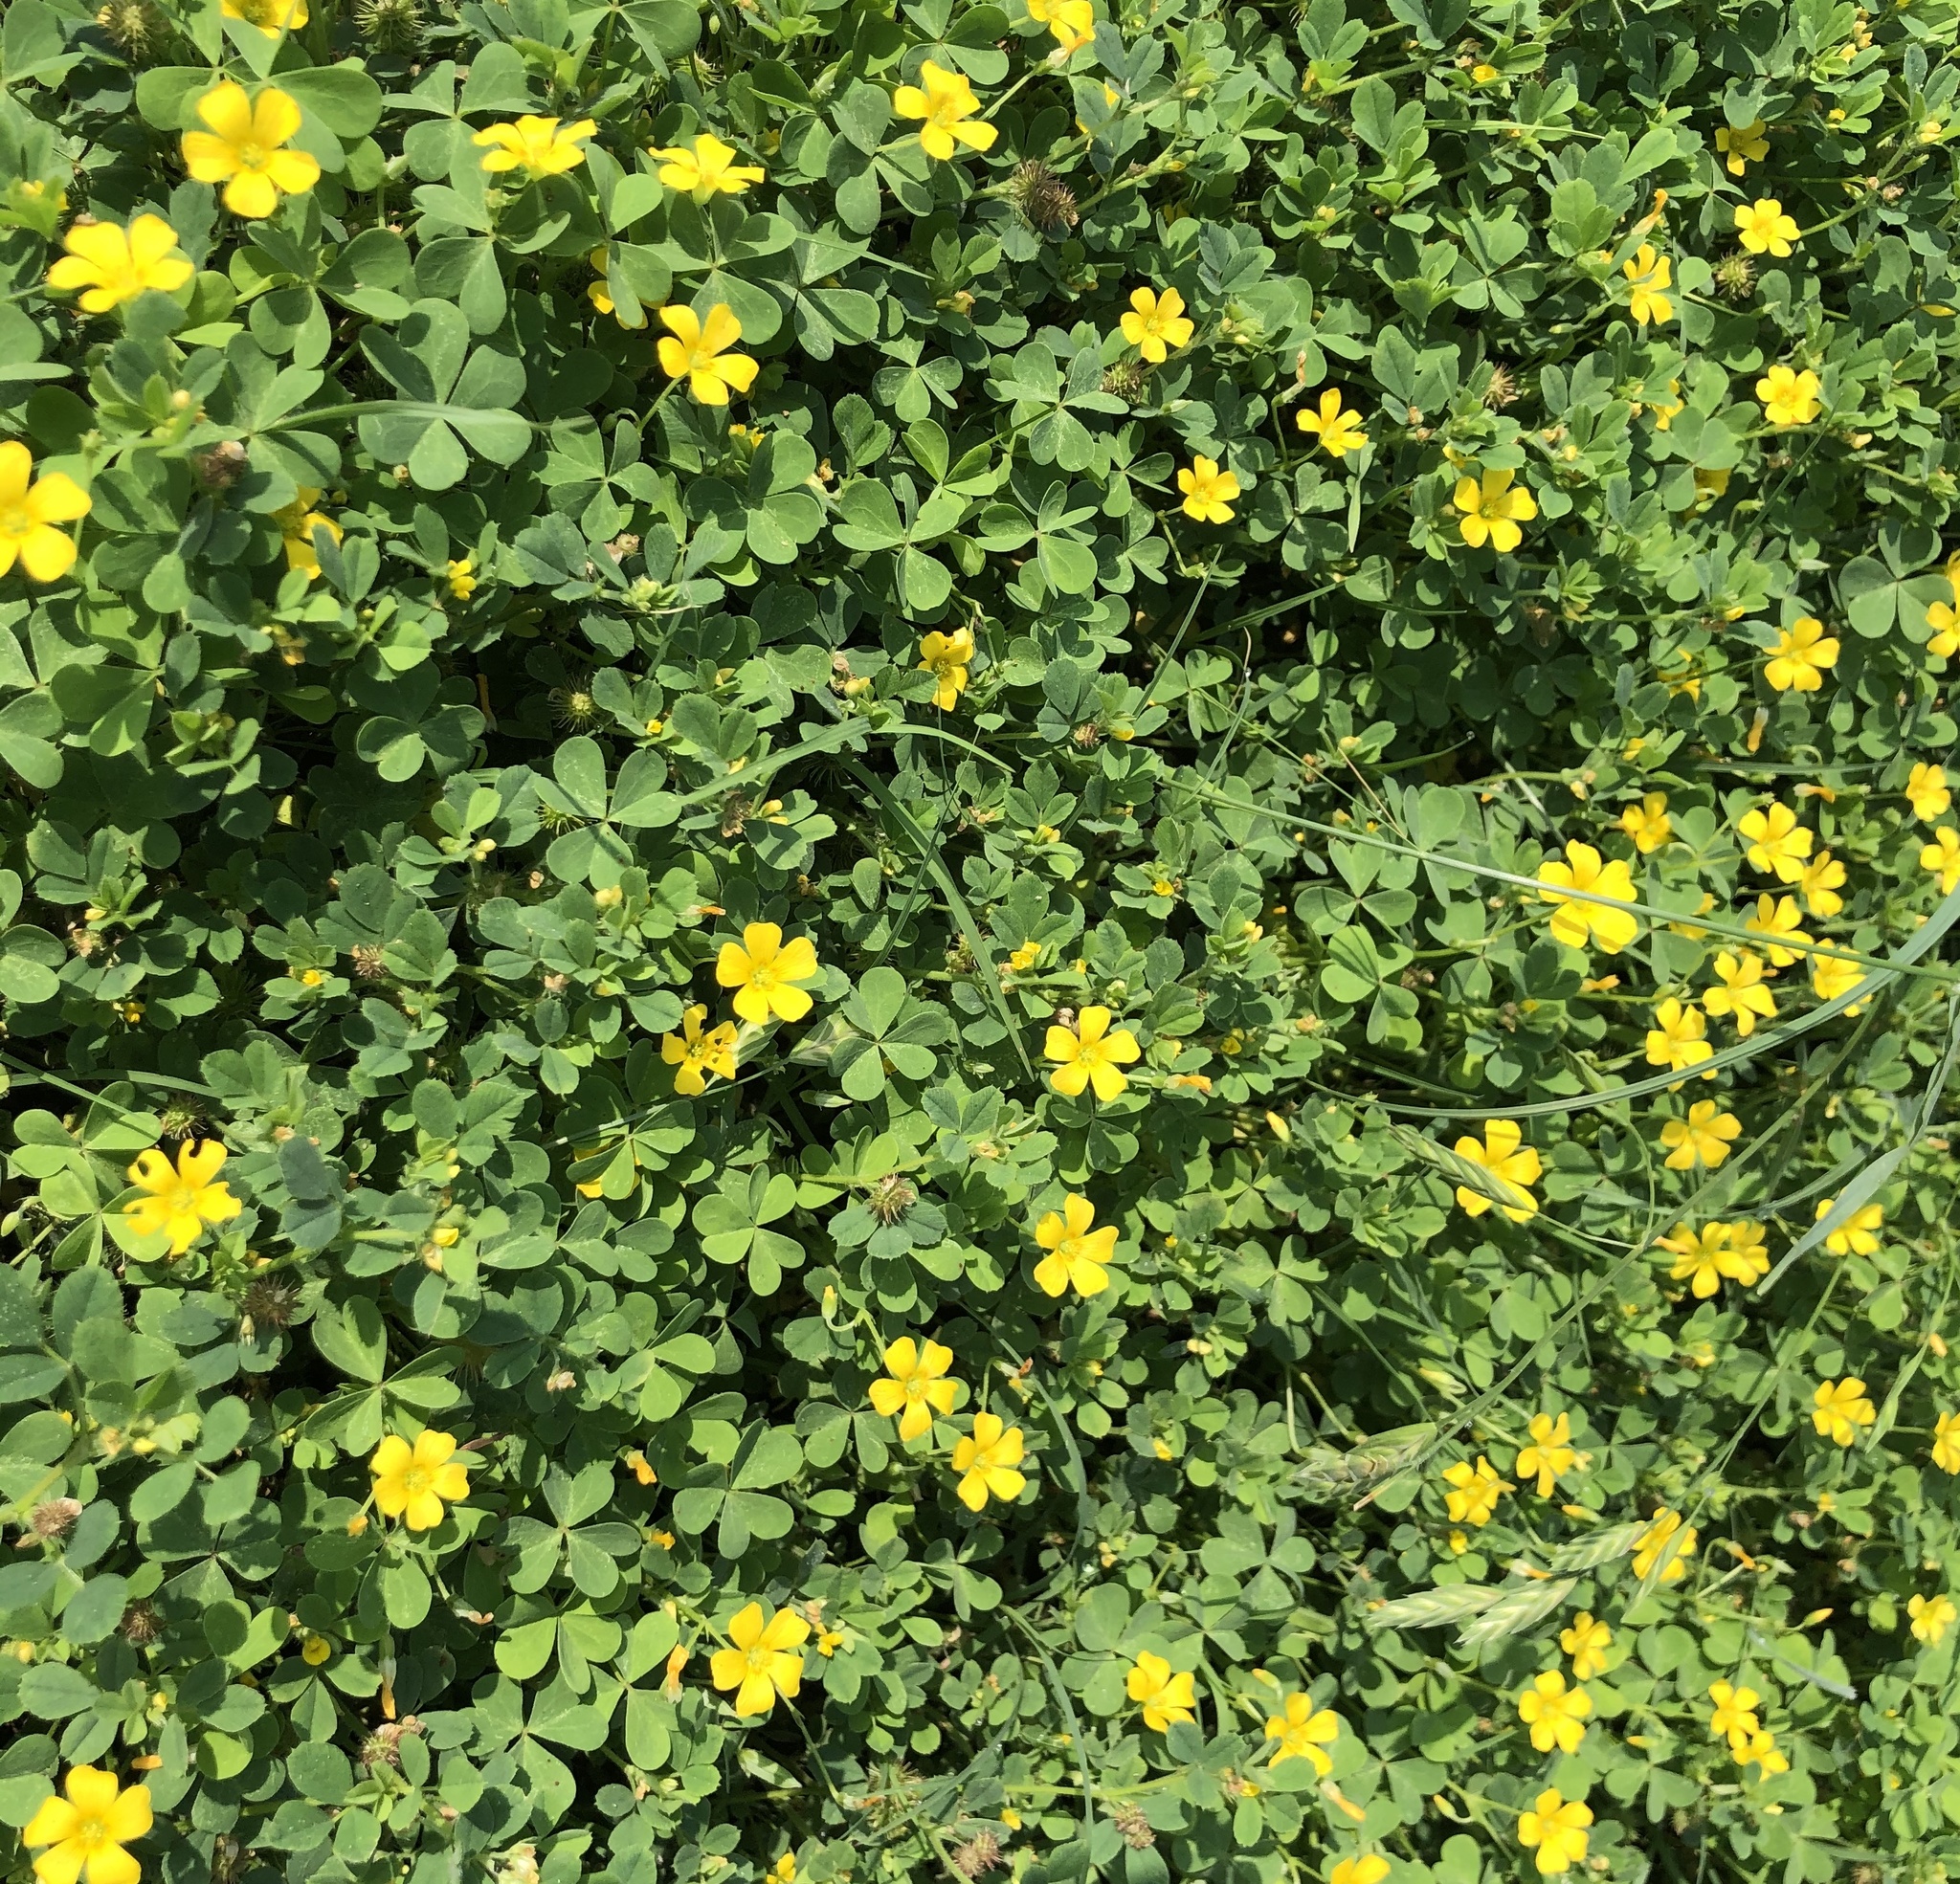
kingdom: Plantae
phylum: Tracheophyta
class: Magnoliopsida
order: Oxalidales
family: Oxalidaceae
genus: Oxalis
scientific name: Oxalis dillenii
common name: Sussex yellow-sorrel
